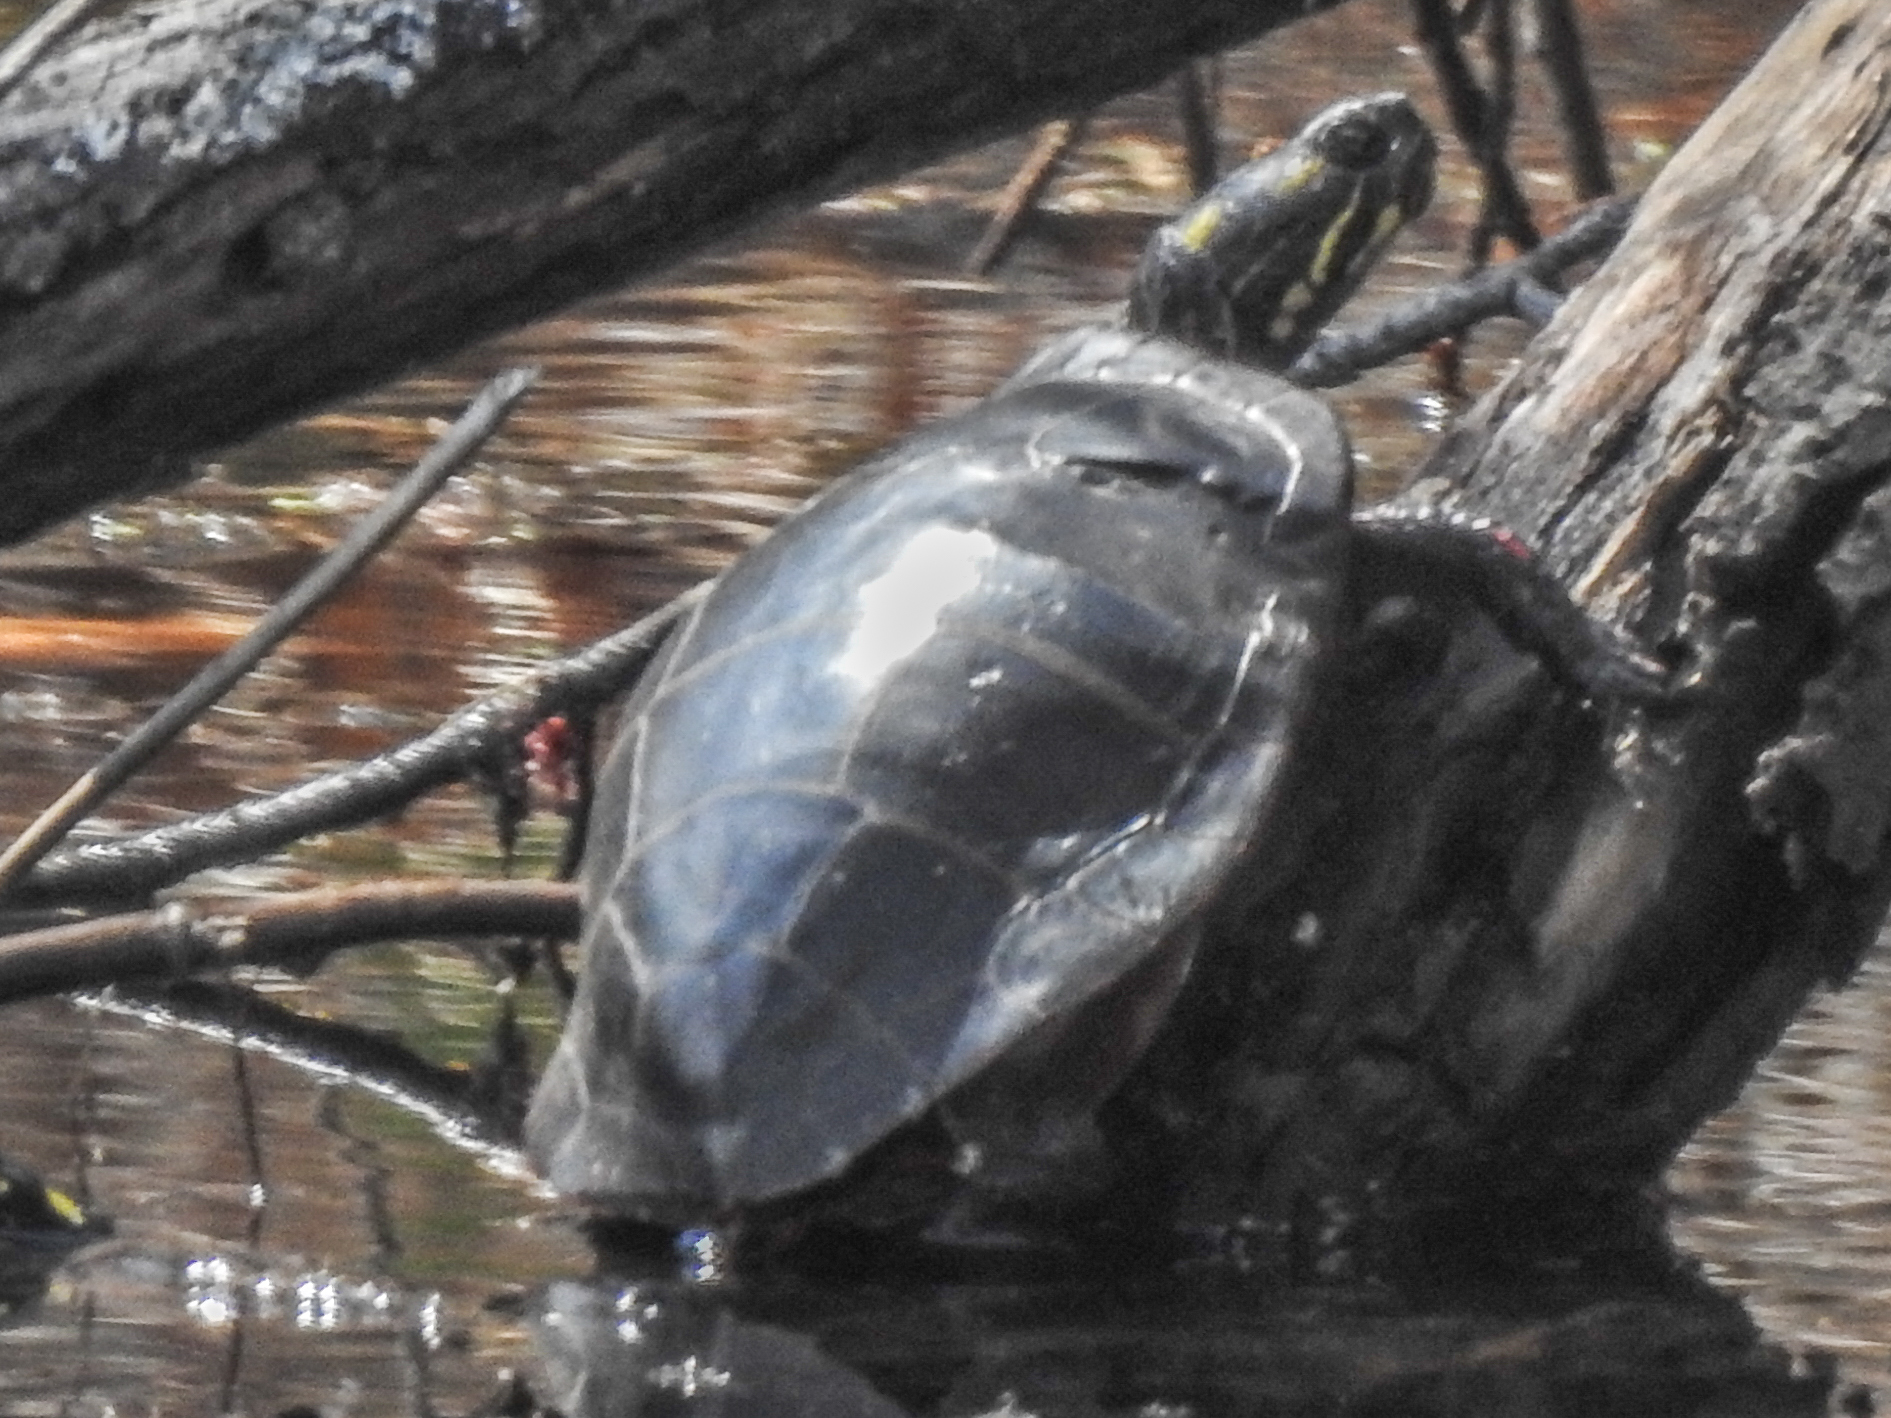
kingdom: Animalia
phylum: Chordata
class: Testudines
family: Emydidae
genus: Chrysemys
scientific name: Chrysemys picta
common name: Painted turtle
